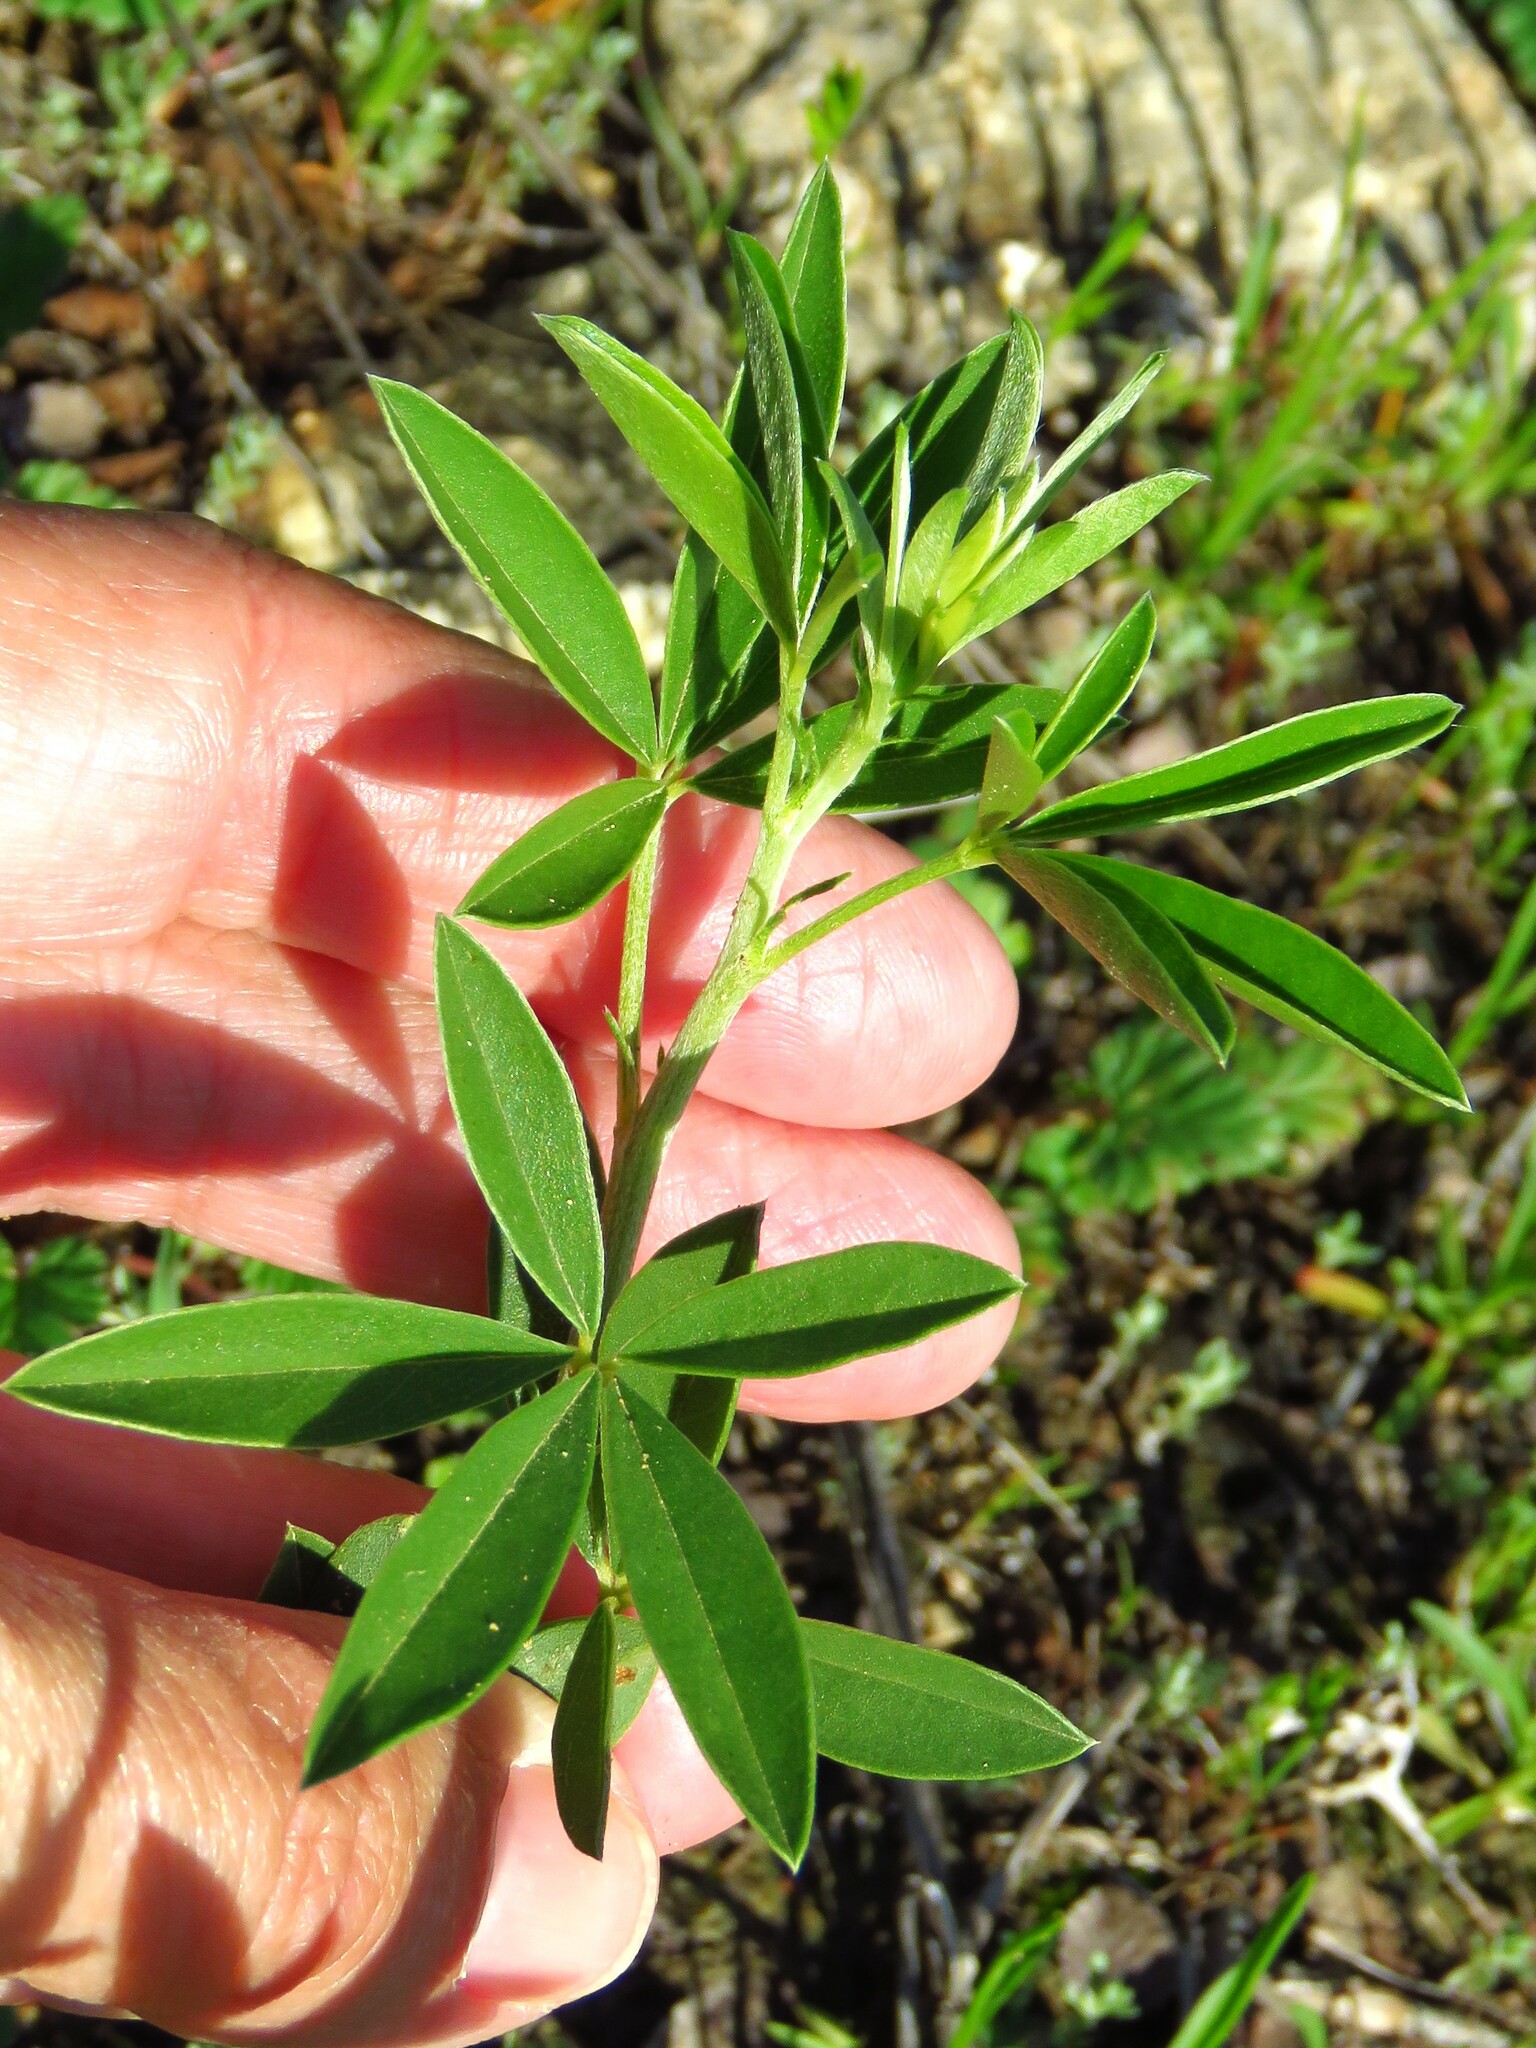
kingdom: Plantae
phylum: Tracheophyta
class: Magnoliopsida
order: Fabales
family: Fabaceae
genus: Pediomelum
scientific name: Pediomelum cuspidatum
